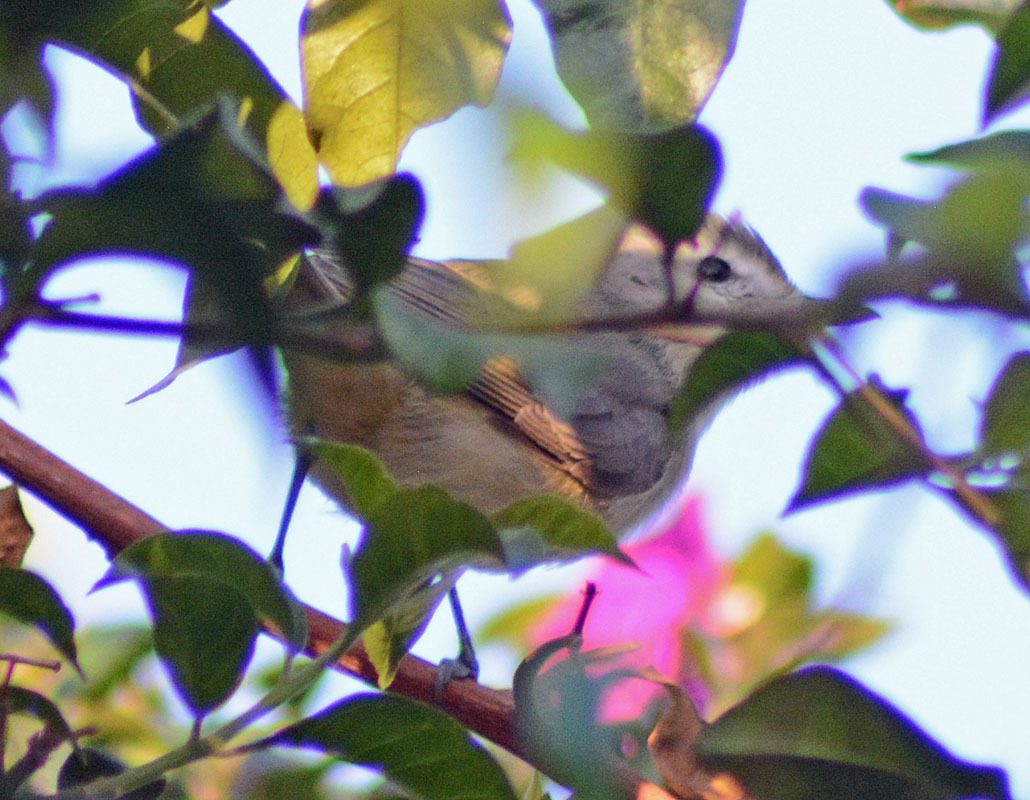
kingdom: Animalia
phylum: Chordata
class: Aves
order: Passeriformes
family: Vireonidae
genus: Vireo
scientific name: Vireo gilvus
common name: Warbling vireo
